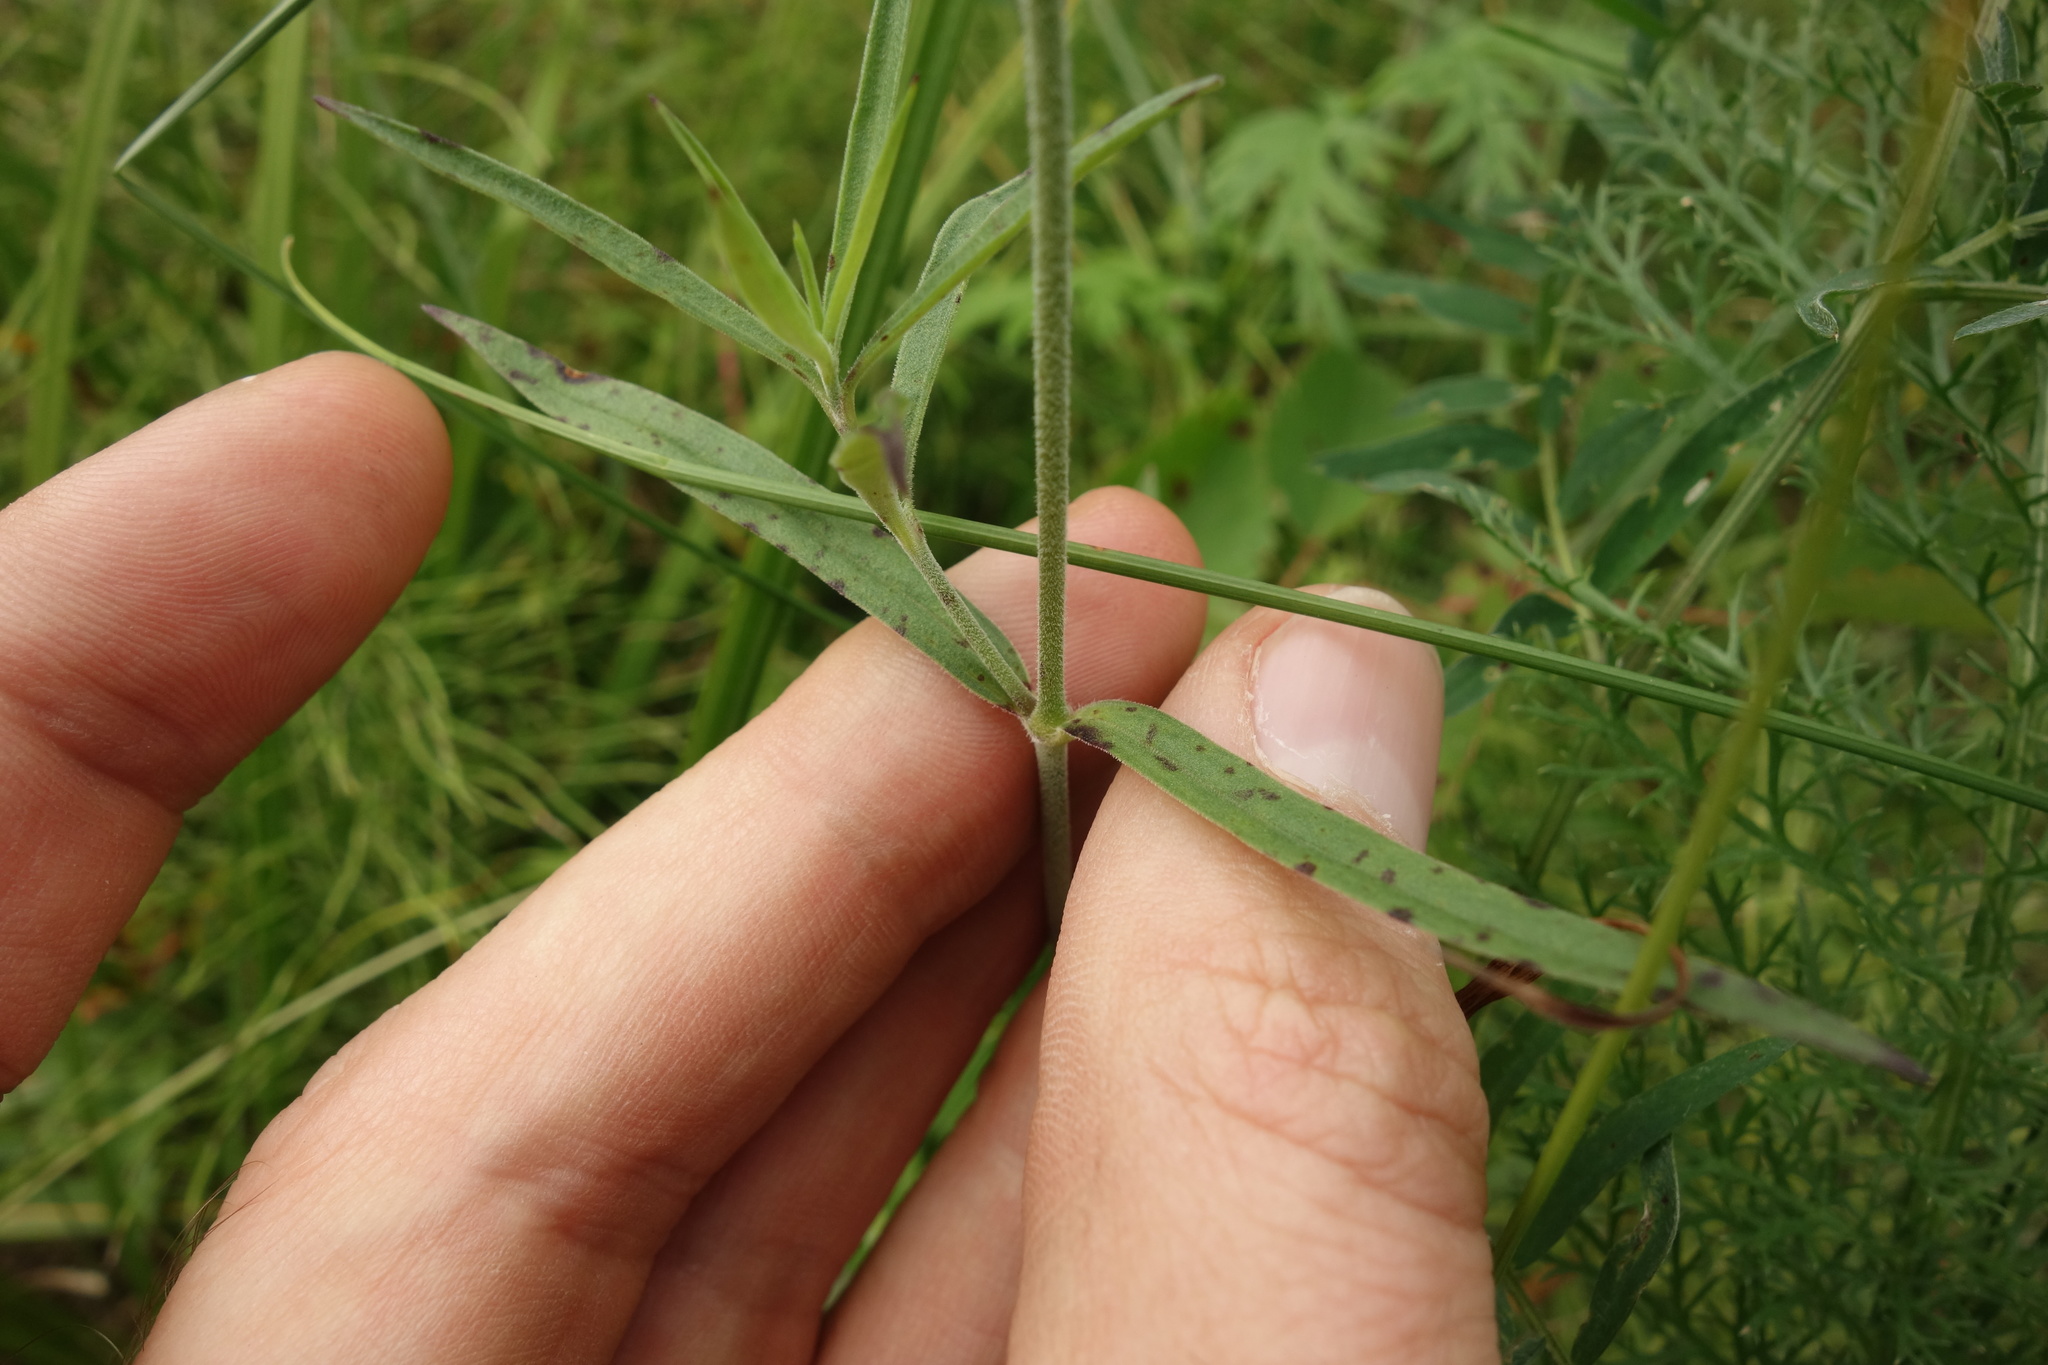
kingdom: Plantae
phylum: Tracheophyta
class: Magnoliopsida
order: Caryophyllales
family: Caryophyllaceae
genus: Silene
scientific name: Silene amoena
